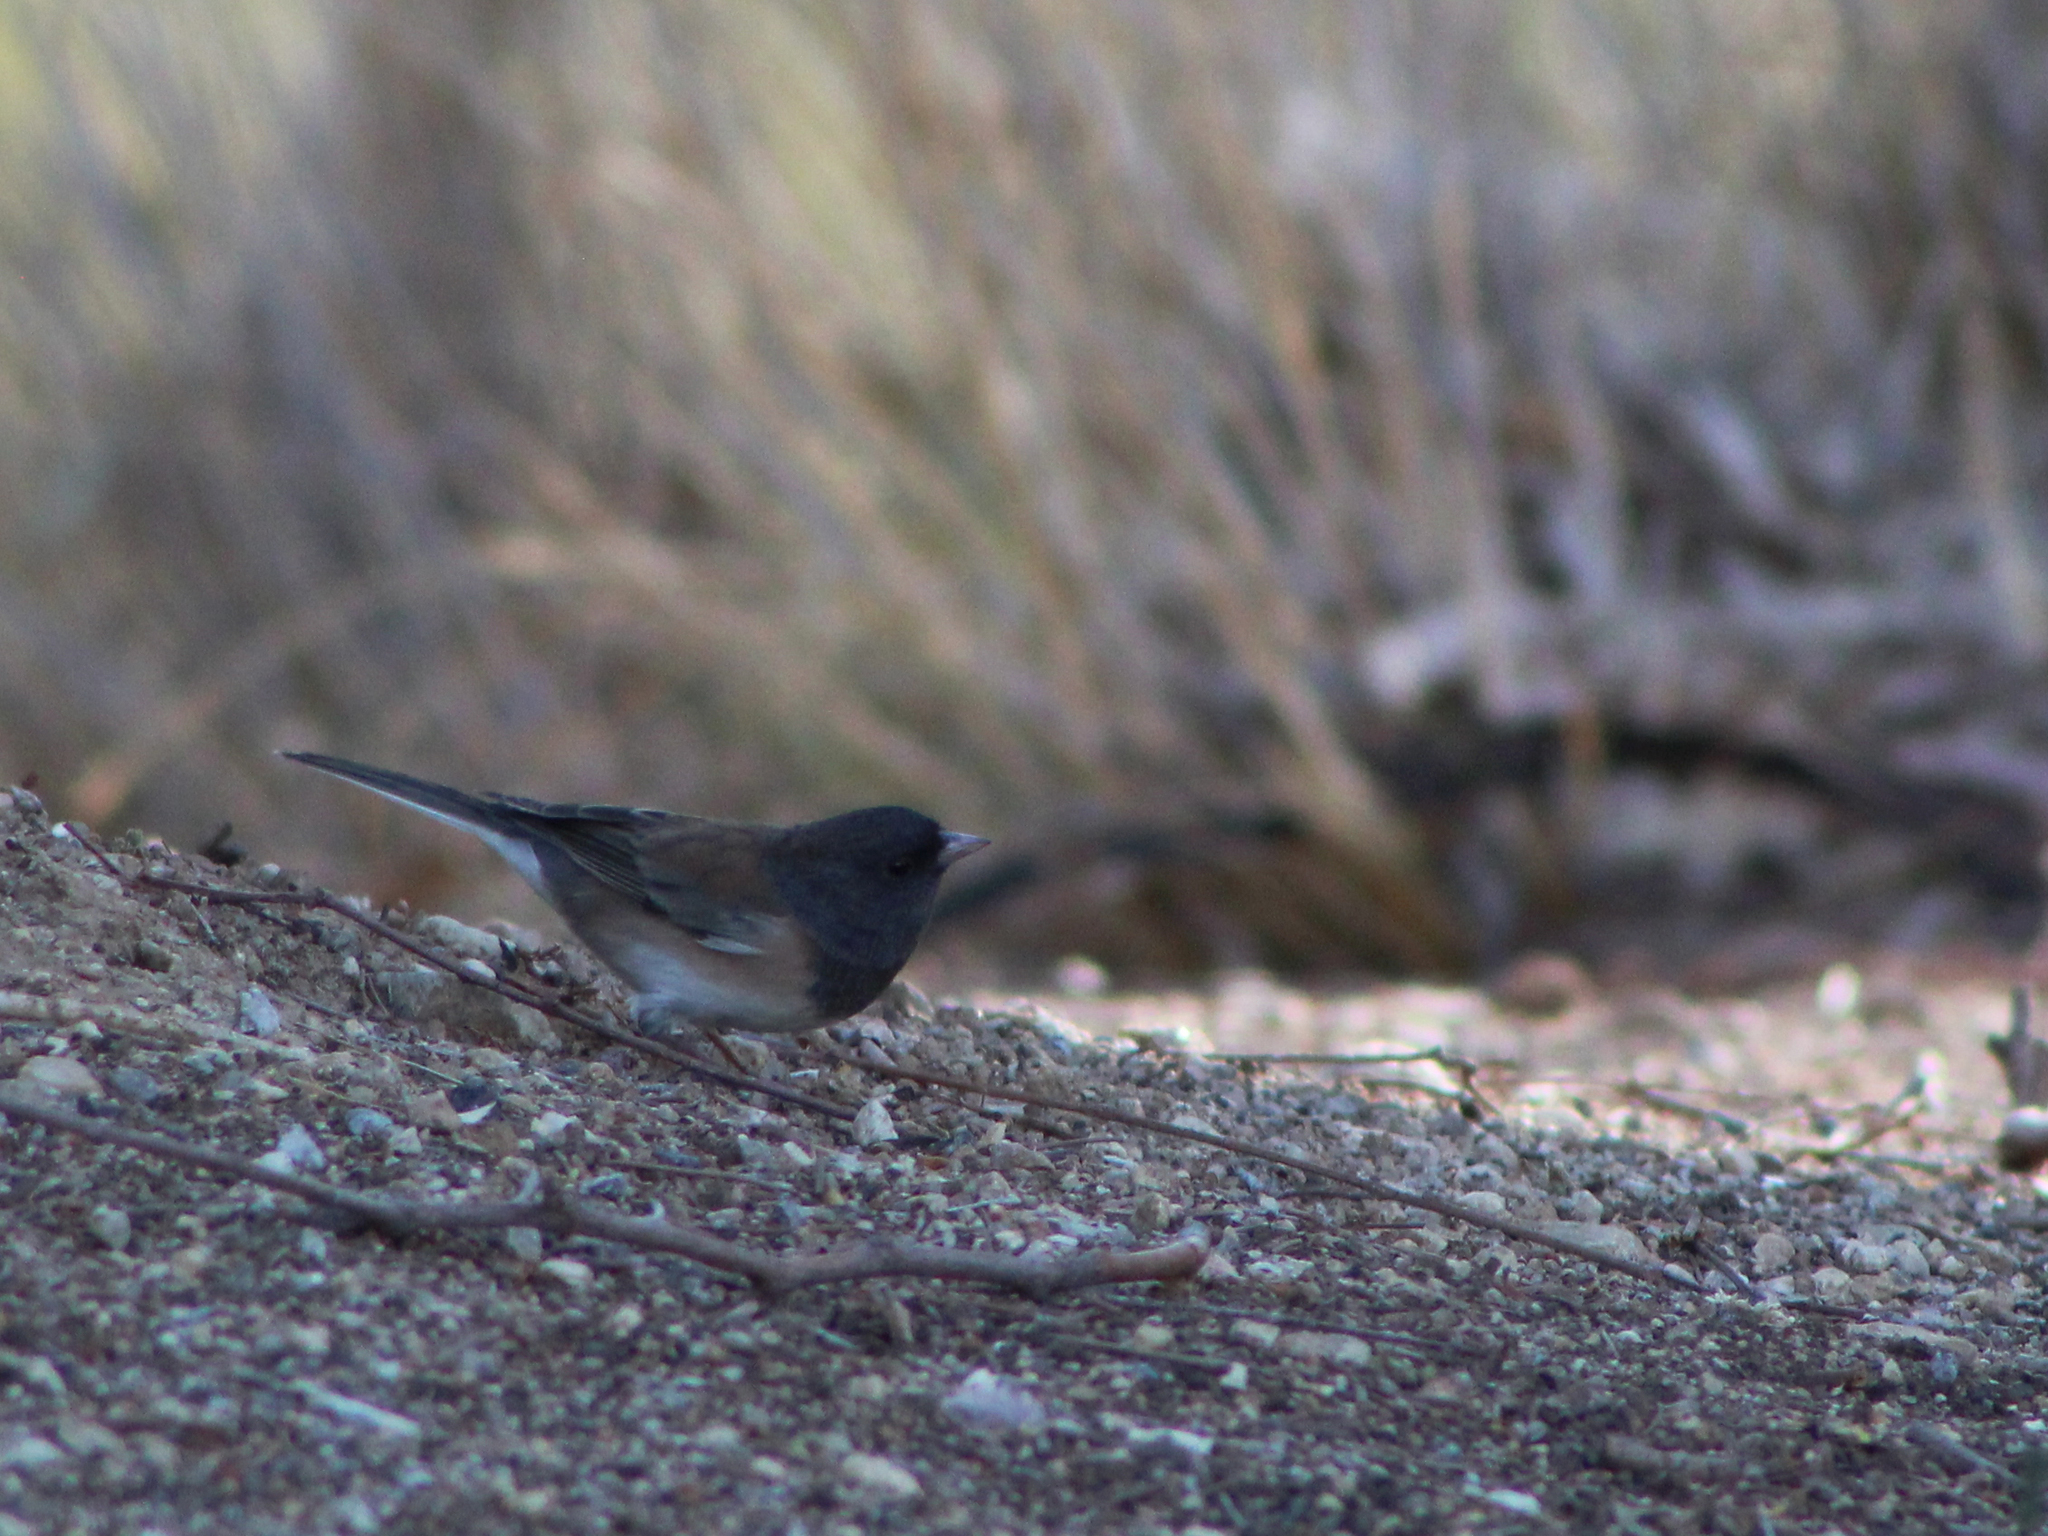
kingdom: Animalia
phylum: Chordata
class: Aves
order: Passeriformes
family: Passerellidae
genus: Junco
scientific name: Junco hyemalis
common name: Dark-eyed junco
